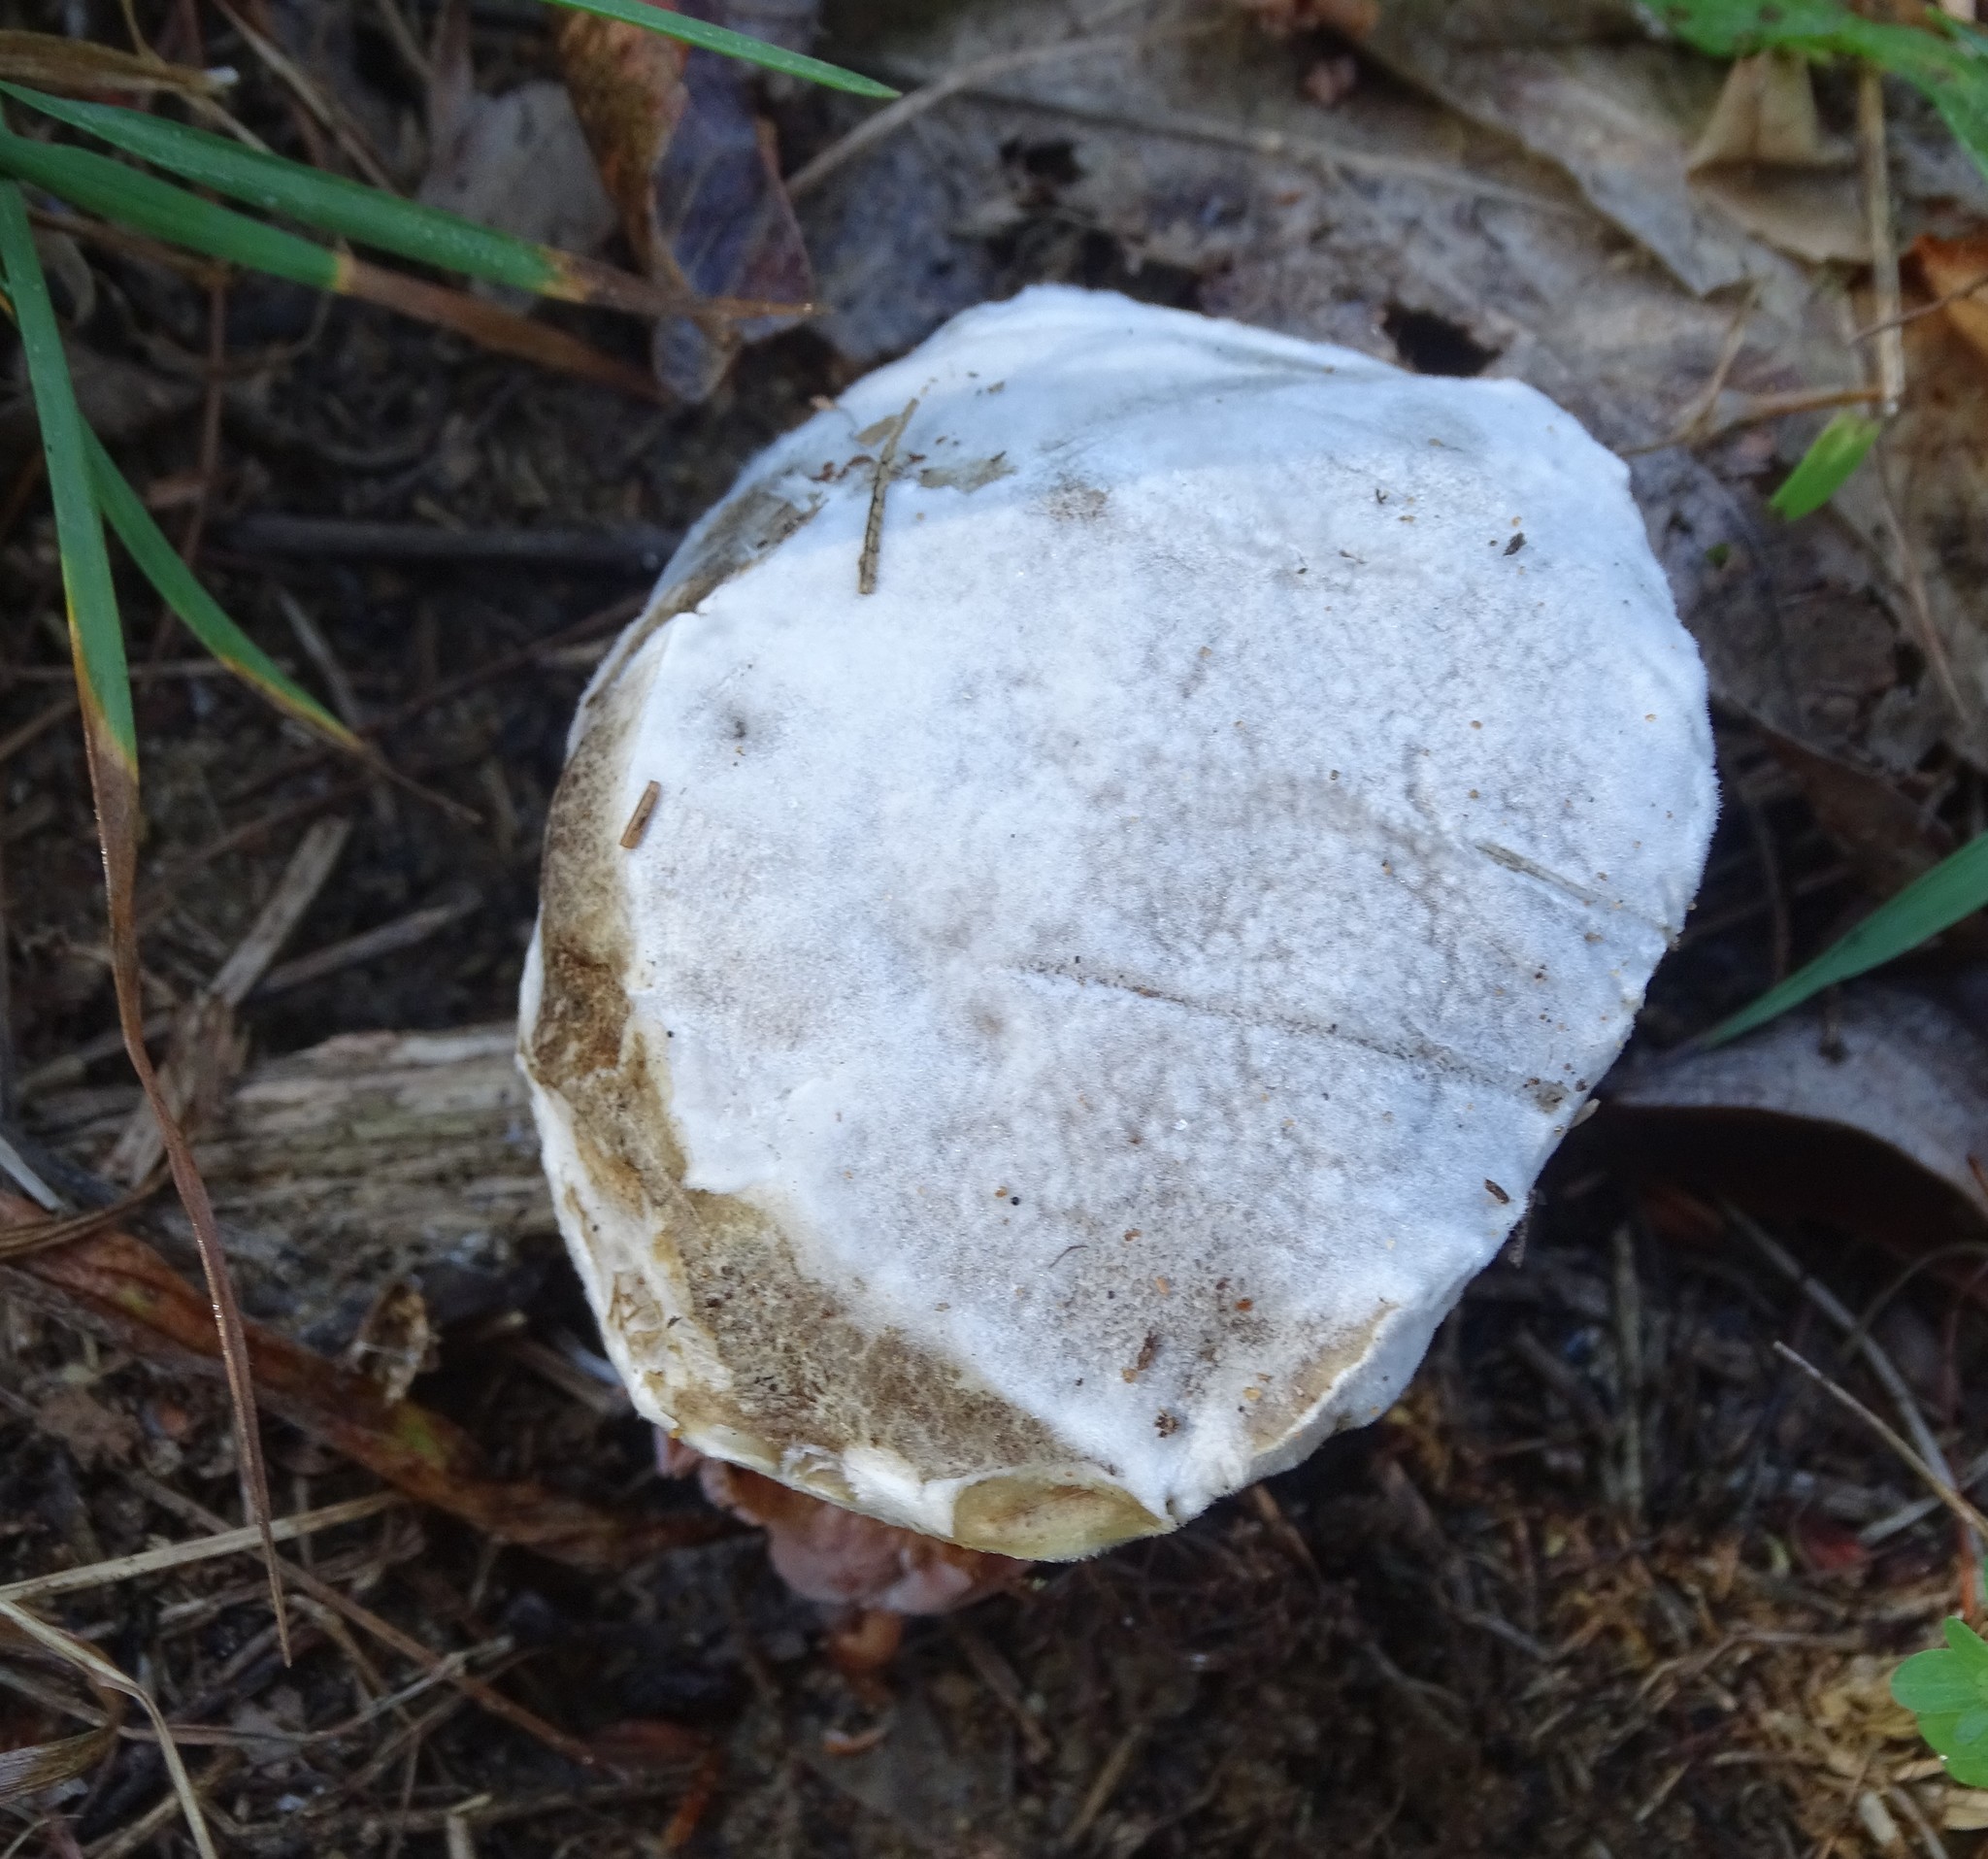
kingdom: Fungi
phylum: Ascomycota
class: Sordariomycetes
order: Hypocreales
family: Hypocreaceae
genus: Hypomyces
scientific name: Hypomyces chrysospermus
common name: Bolete mould
